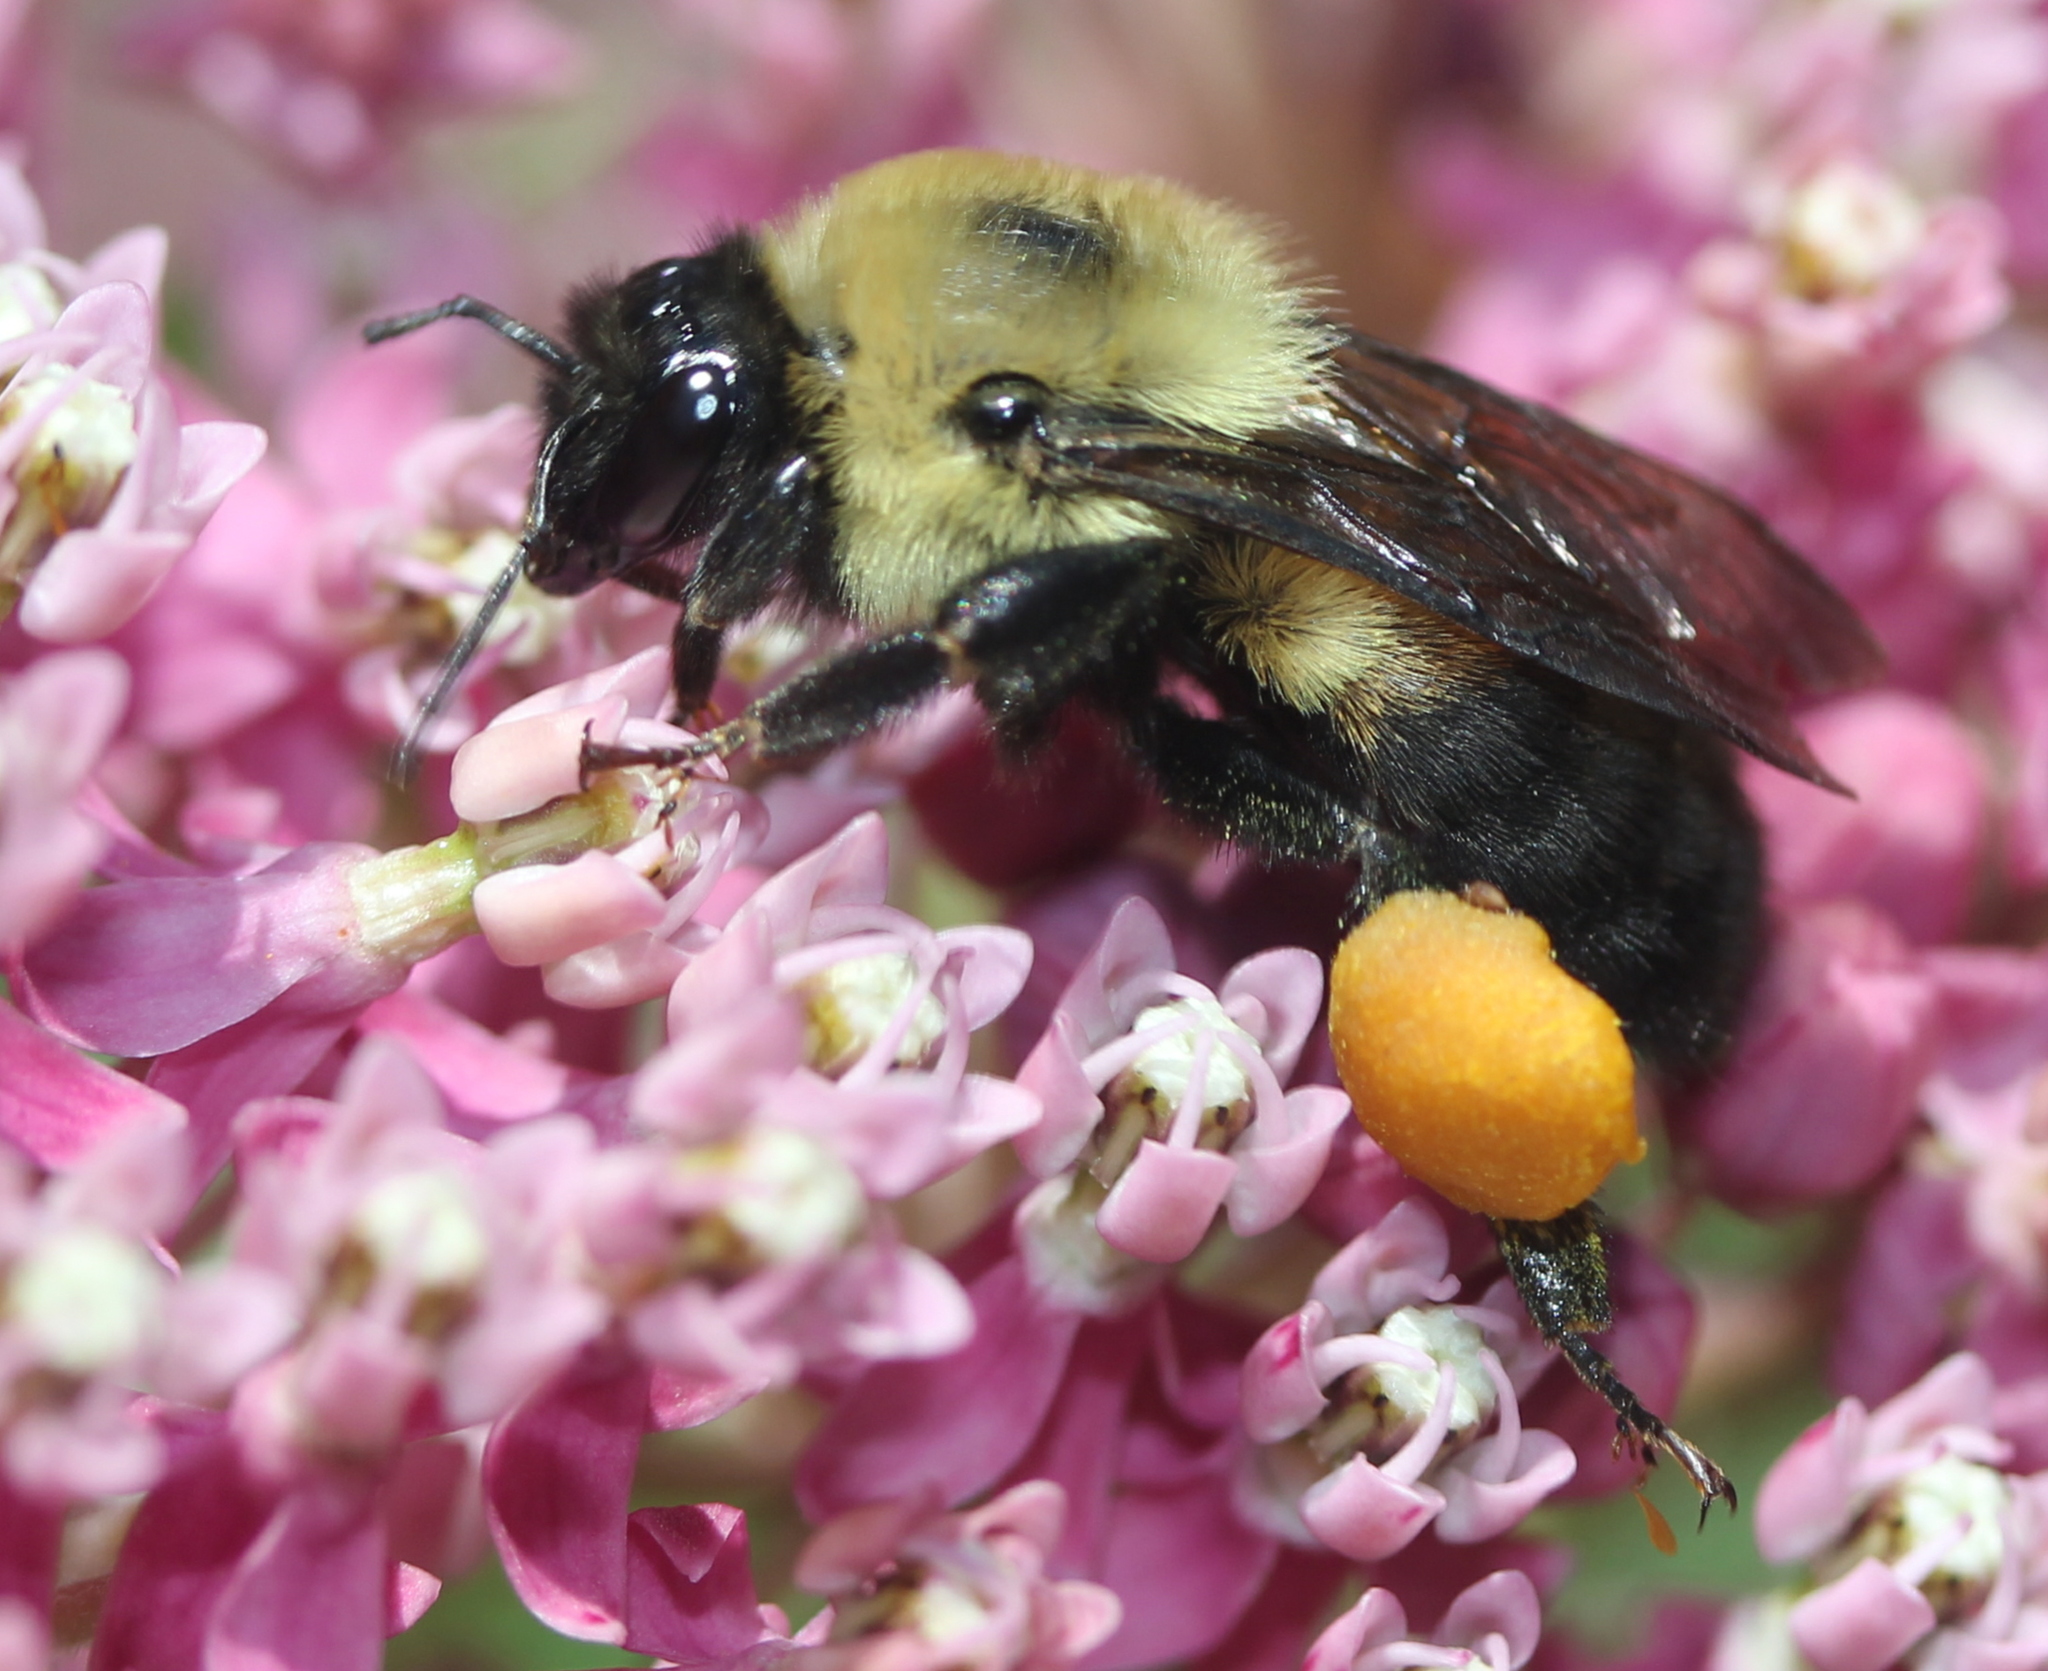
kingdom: Animalia
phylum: Arthropoda
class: Insecta
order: Hymenoptera
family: Apidae
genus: Bombus
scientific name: Bombus griseocollis
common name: Brown-belted bumble bee
